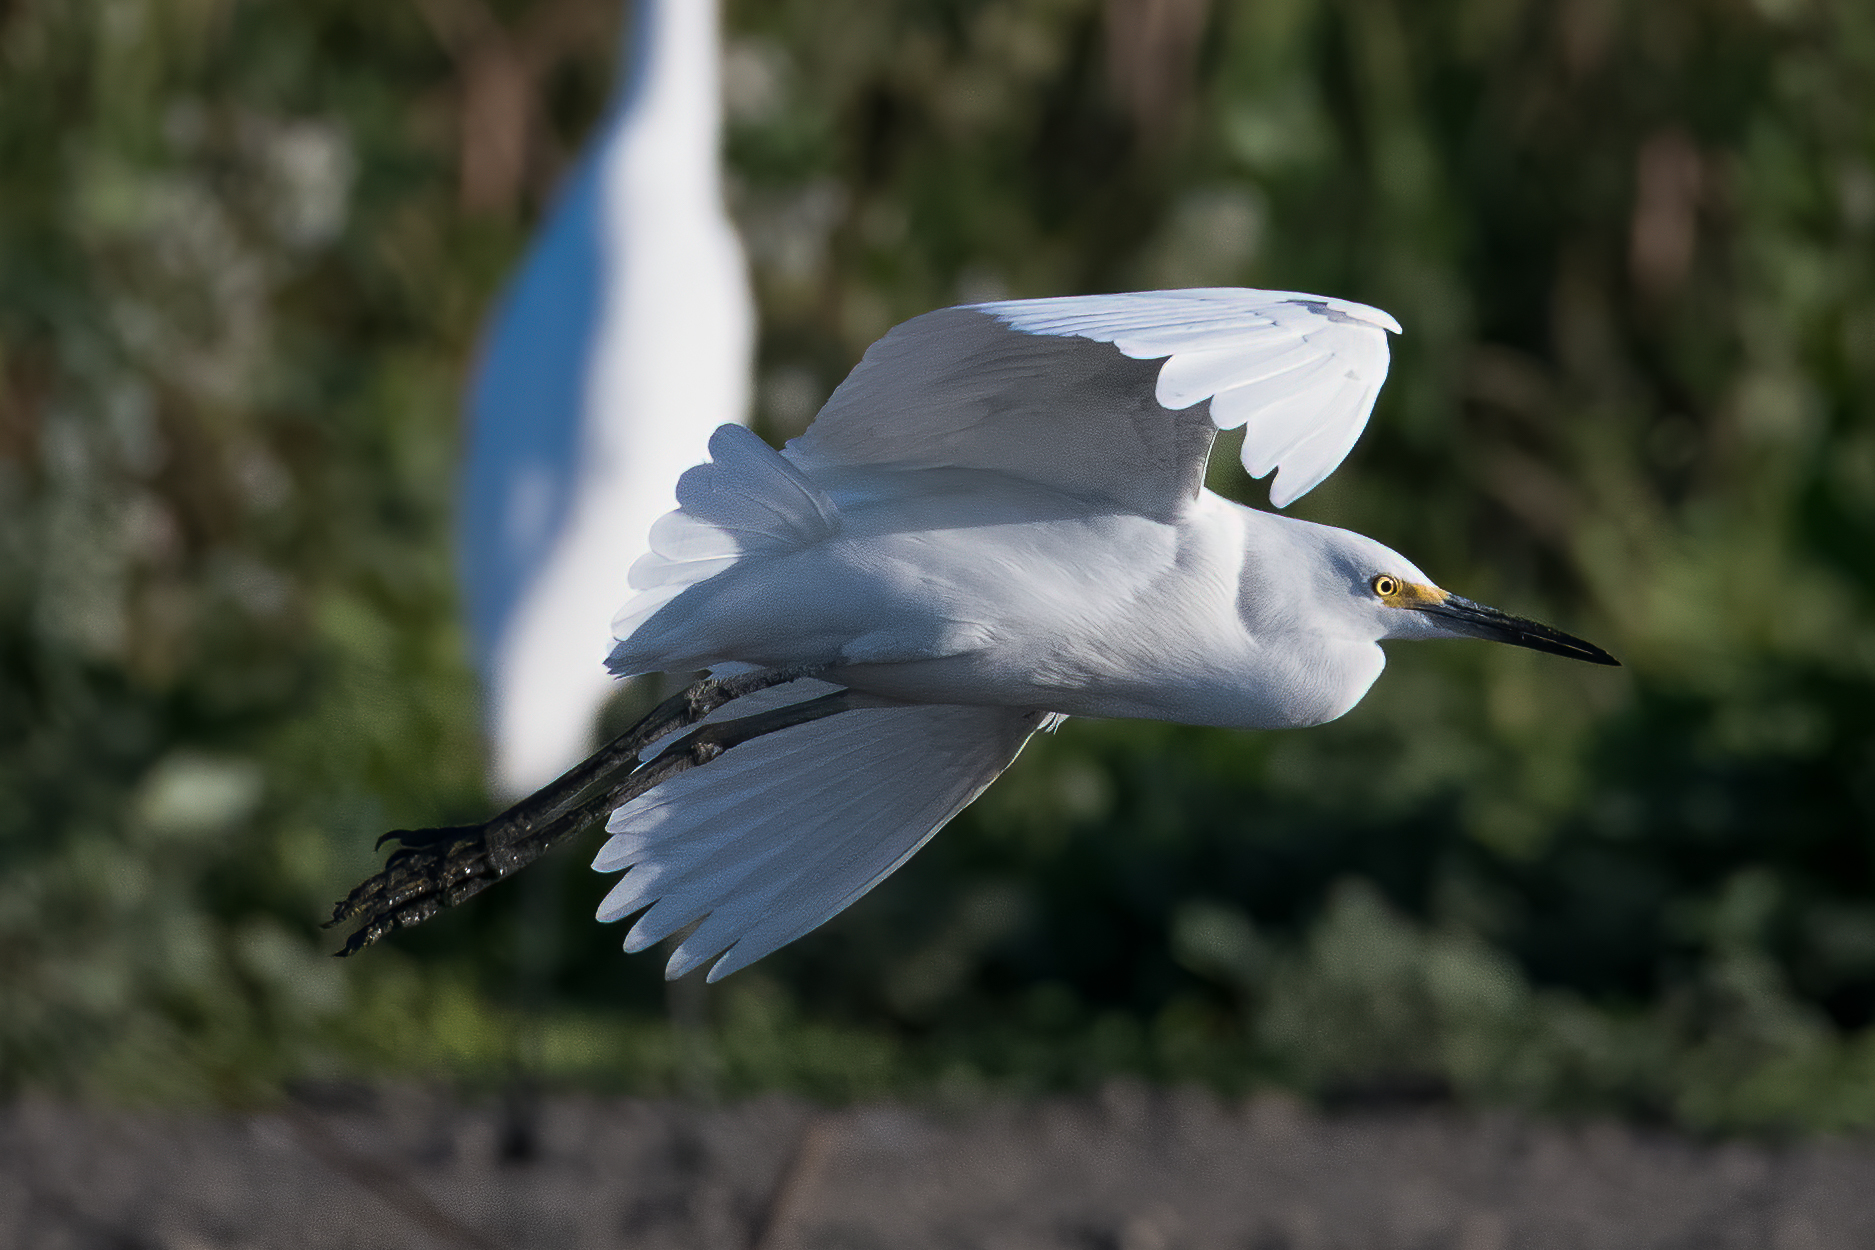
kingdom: Animalia
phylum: Chordata
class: Aves
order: Pelecaniformes
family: Ardeidae
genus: Egretta
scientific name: Egretta thula
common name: Snowy egret
